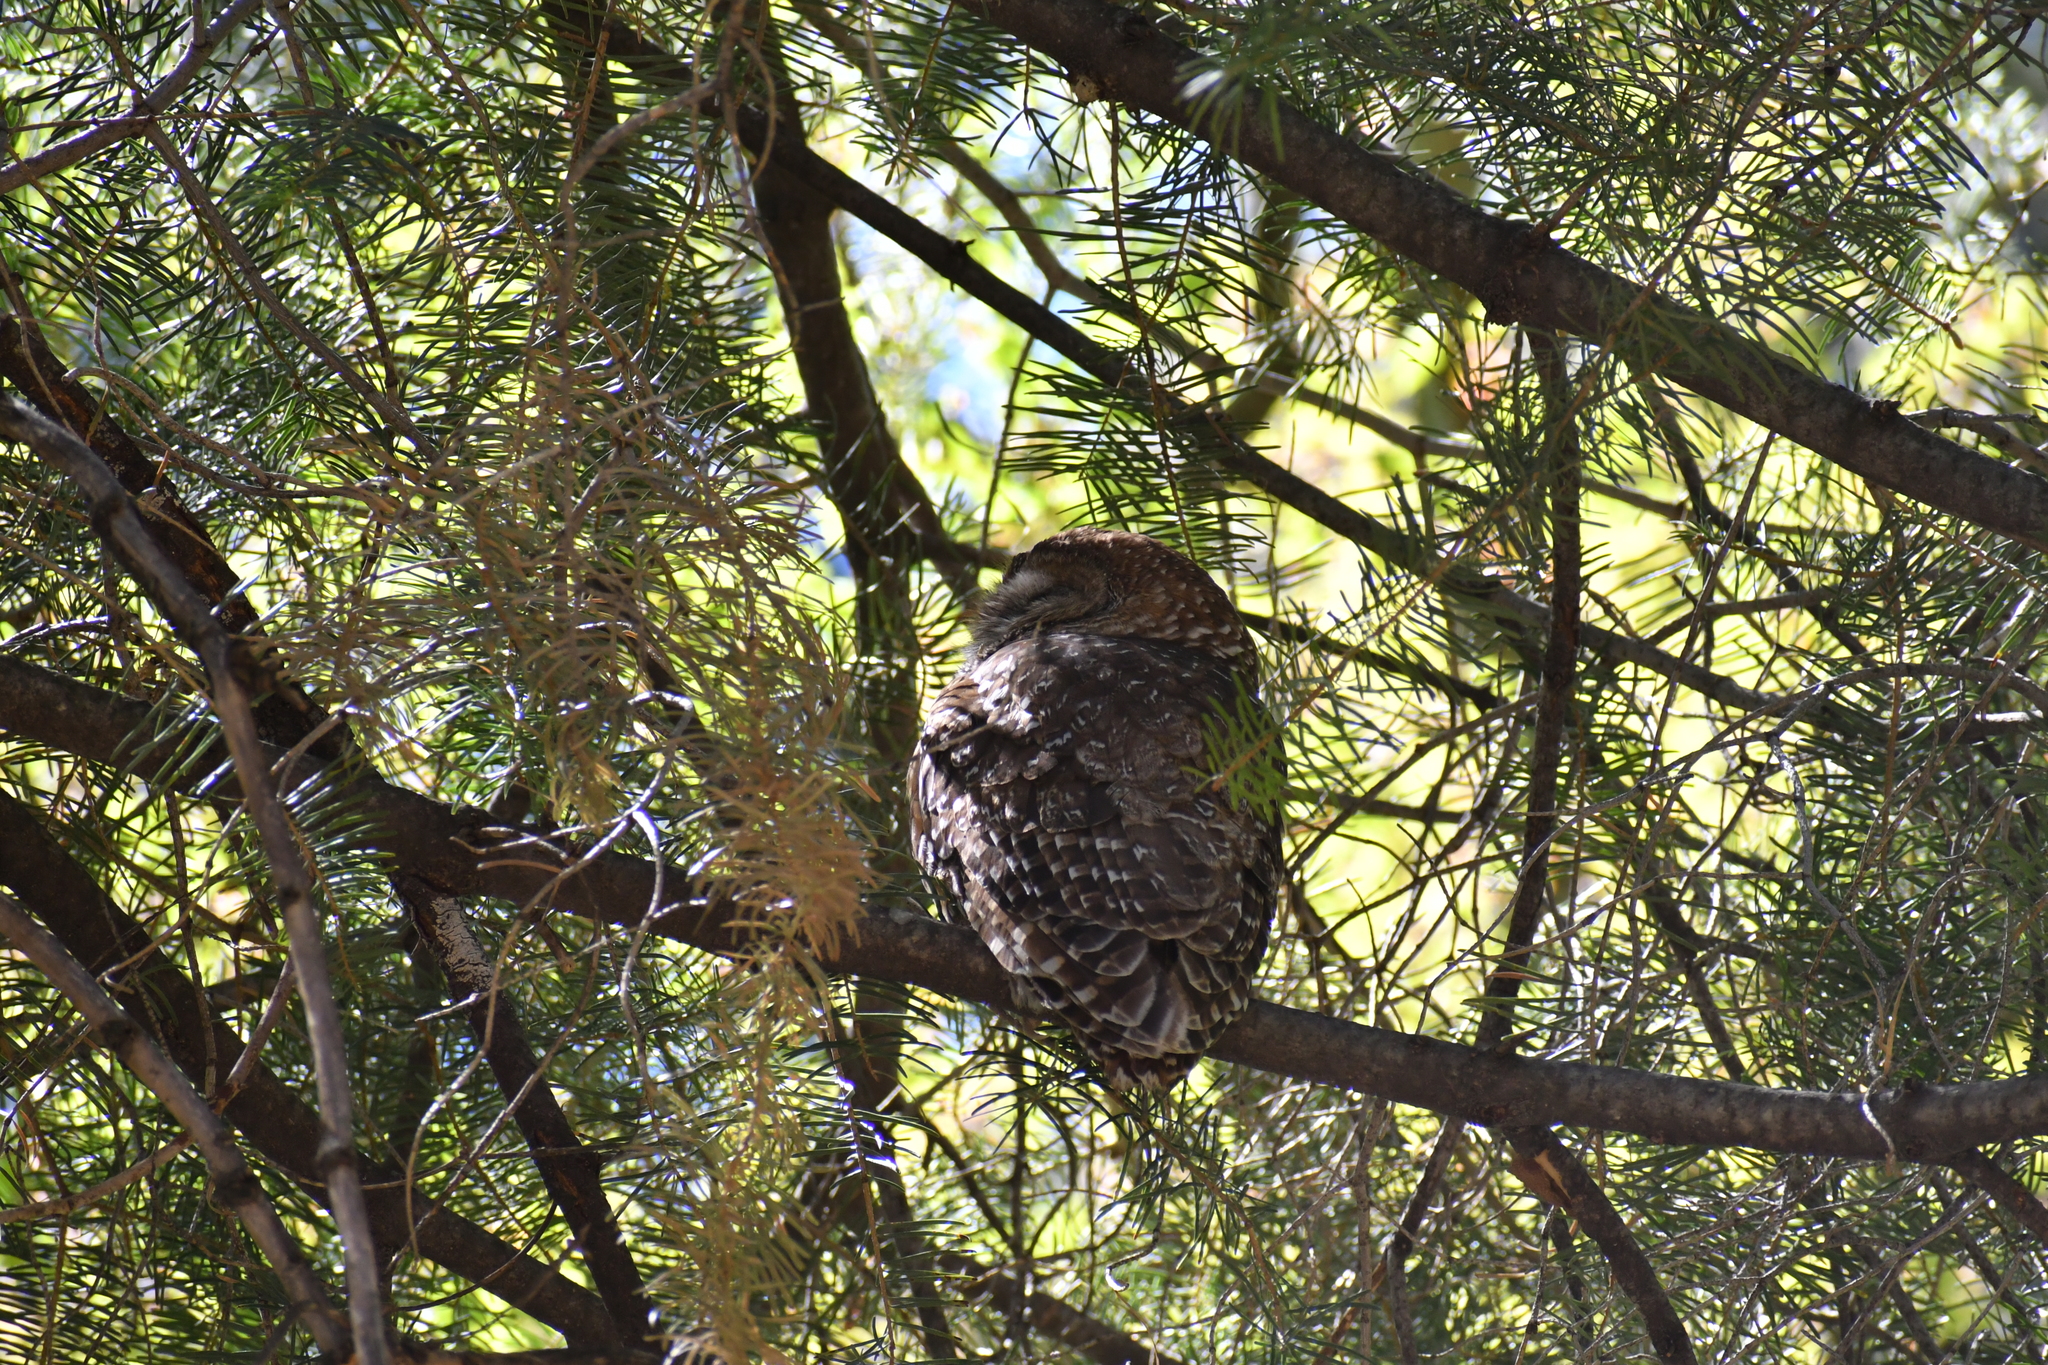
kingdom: Animalia
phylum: Chordata
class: Aves
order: Strigiformes
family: Strigidae
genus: Strix
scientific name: Strix occidentalis
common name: Spotted owl
